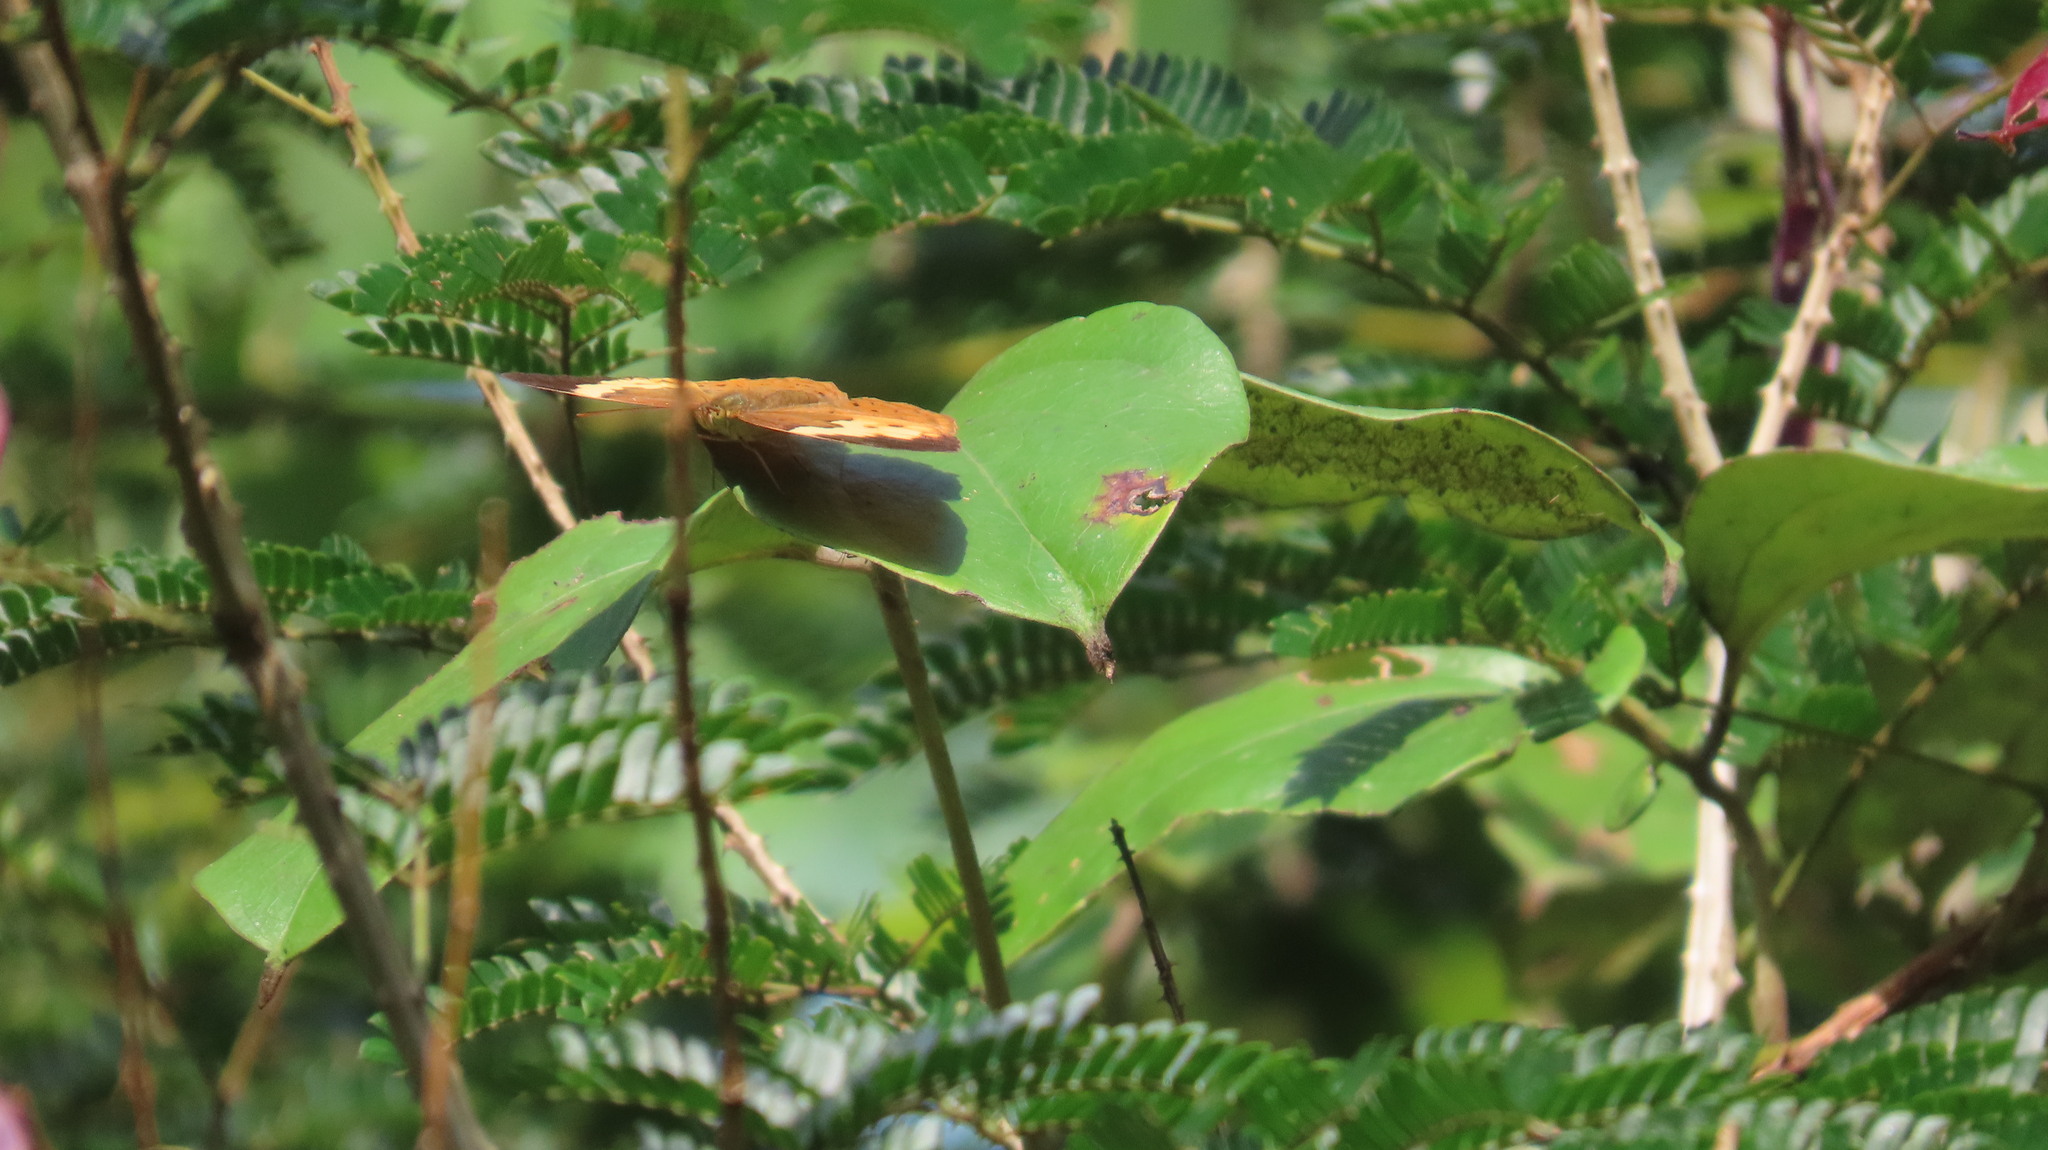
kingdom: Animalia
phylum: Arthropoda
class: Insecta
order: Lepidoptera
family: Nymphalidae
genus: Cupha
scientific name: Cupha erymanthis
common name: Rustic
